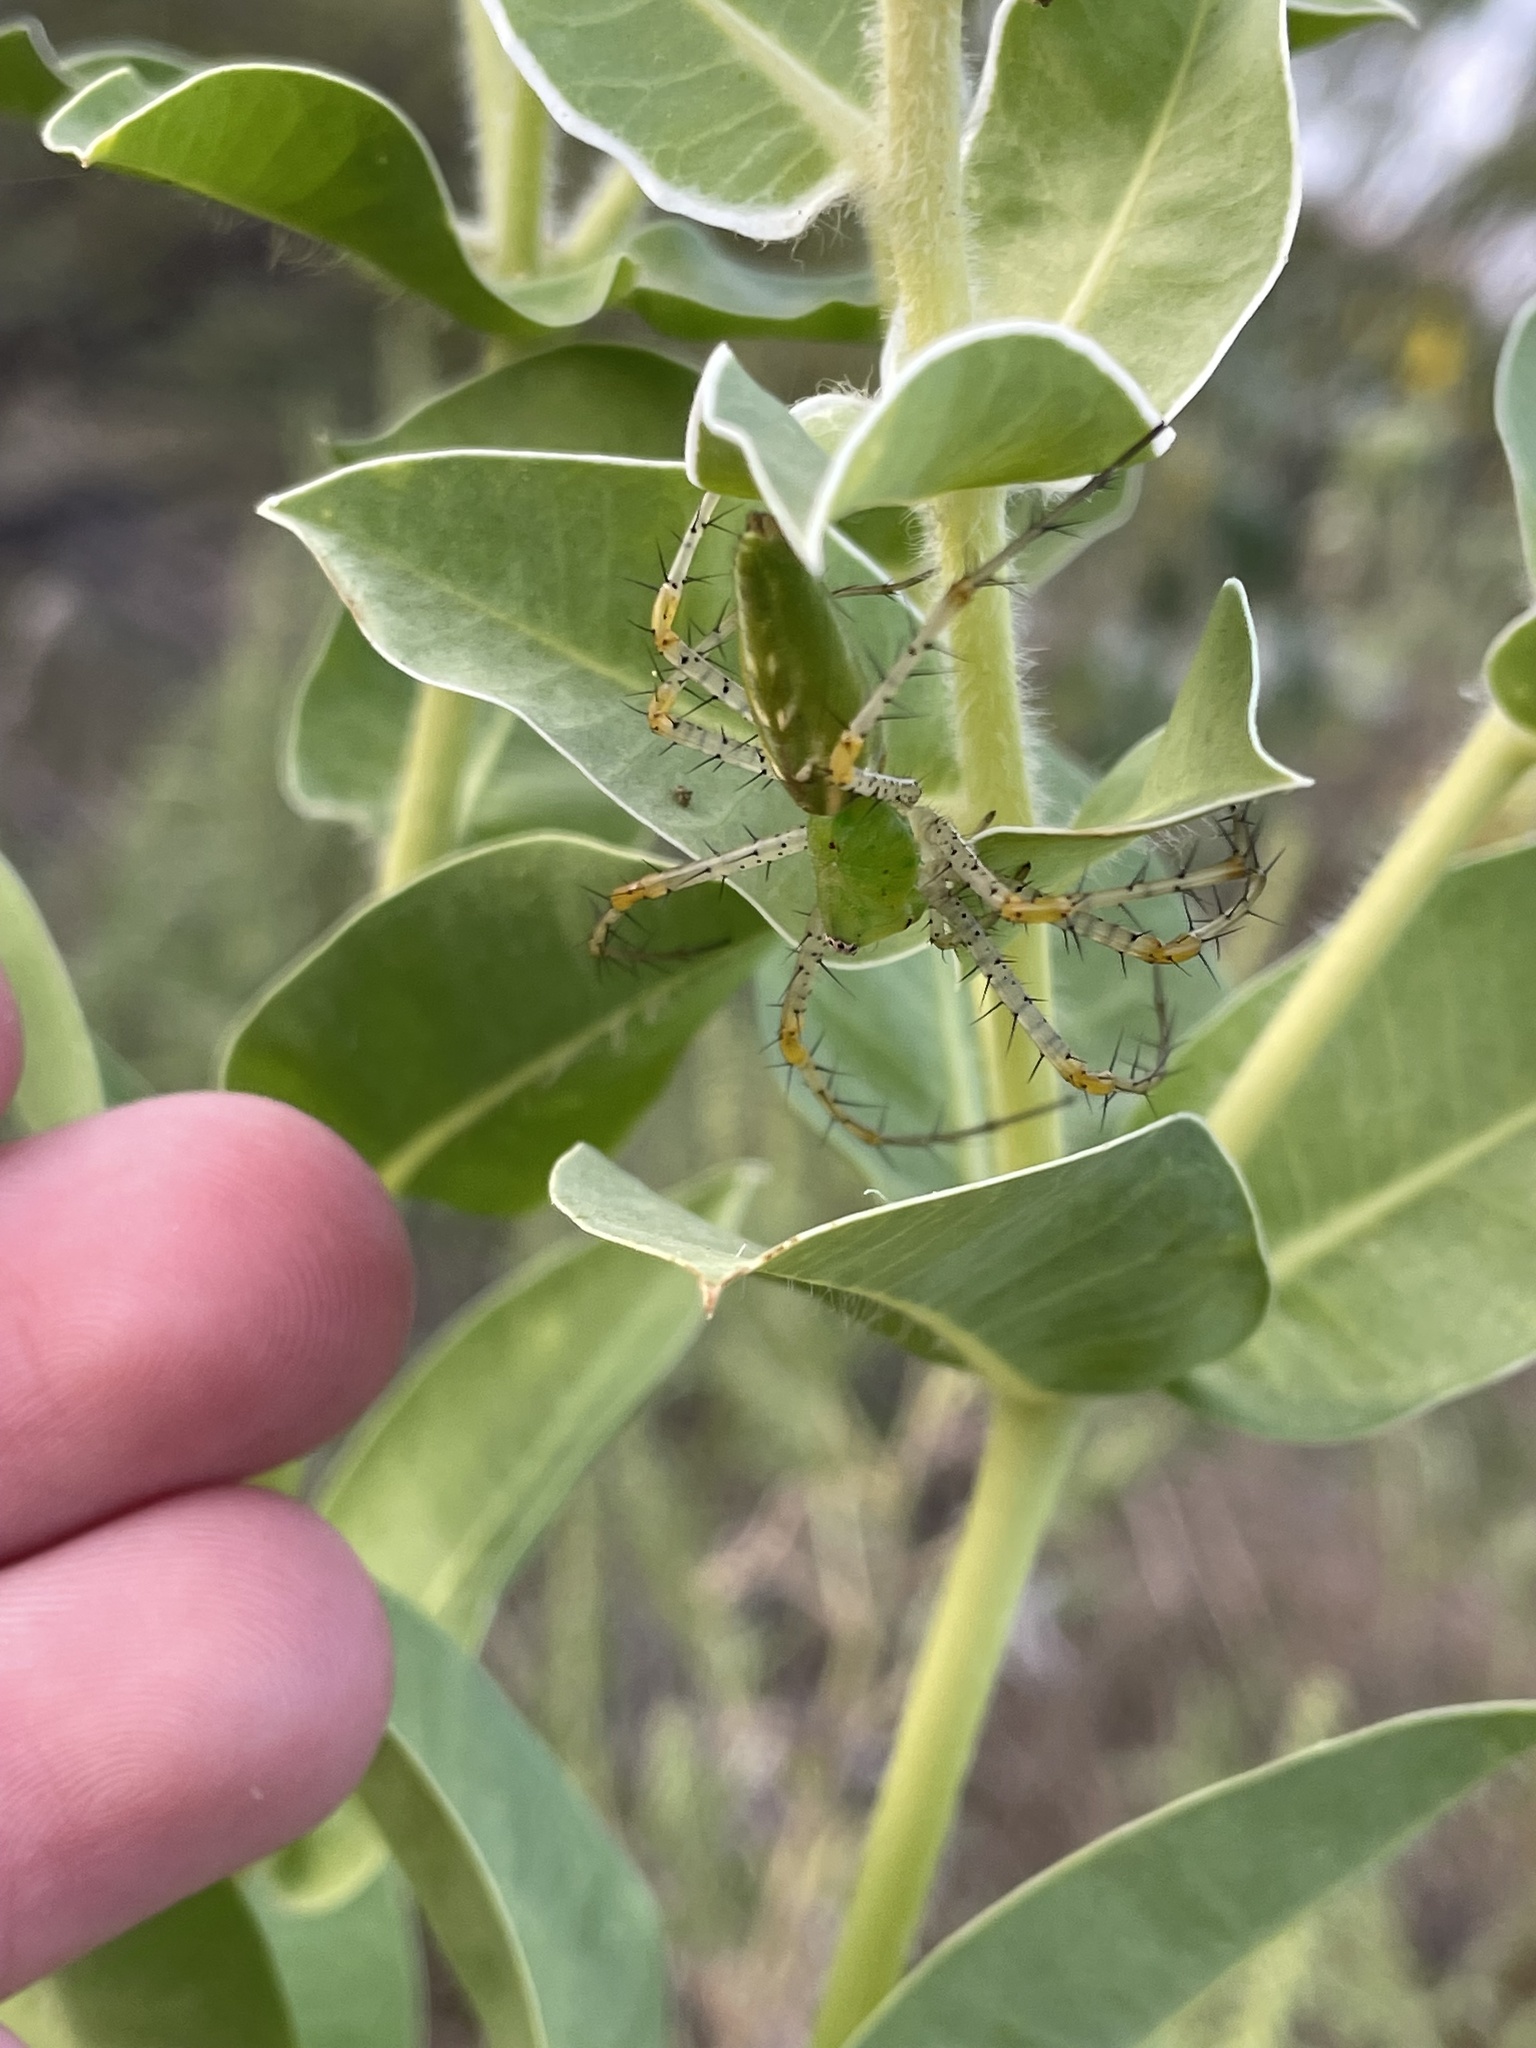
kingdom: Animalia
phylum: Arthropoda
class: Arachnida
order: Araneae
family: Oxyopidae
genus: Peucetia
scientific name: Peucetia viridans
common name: Lynx spiders
